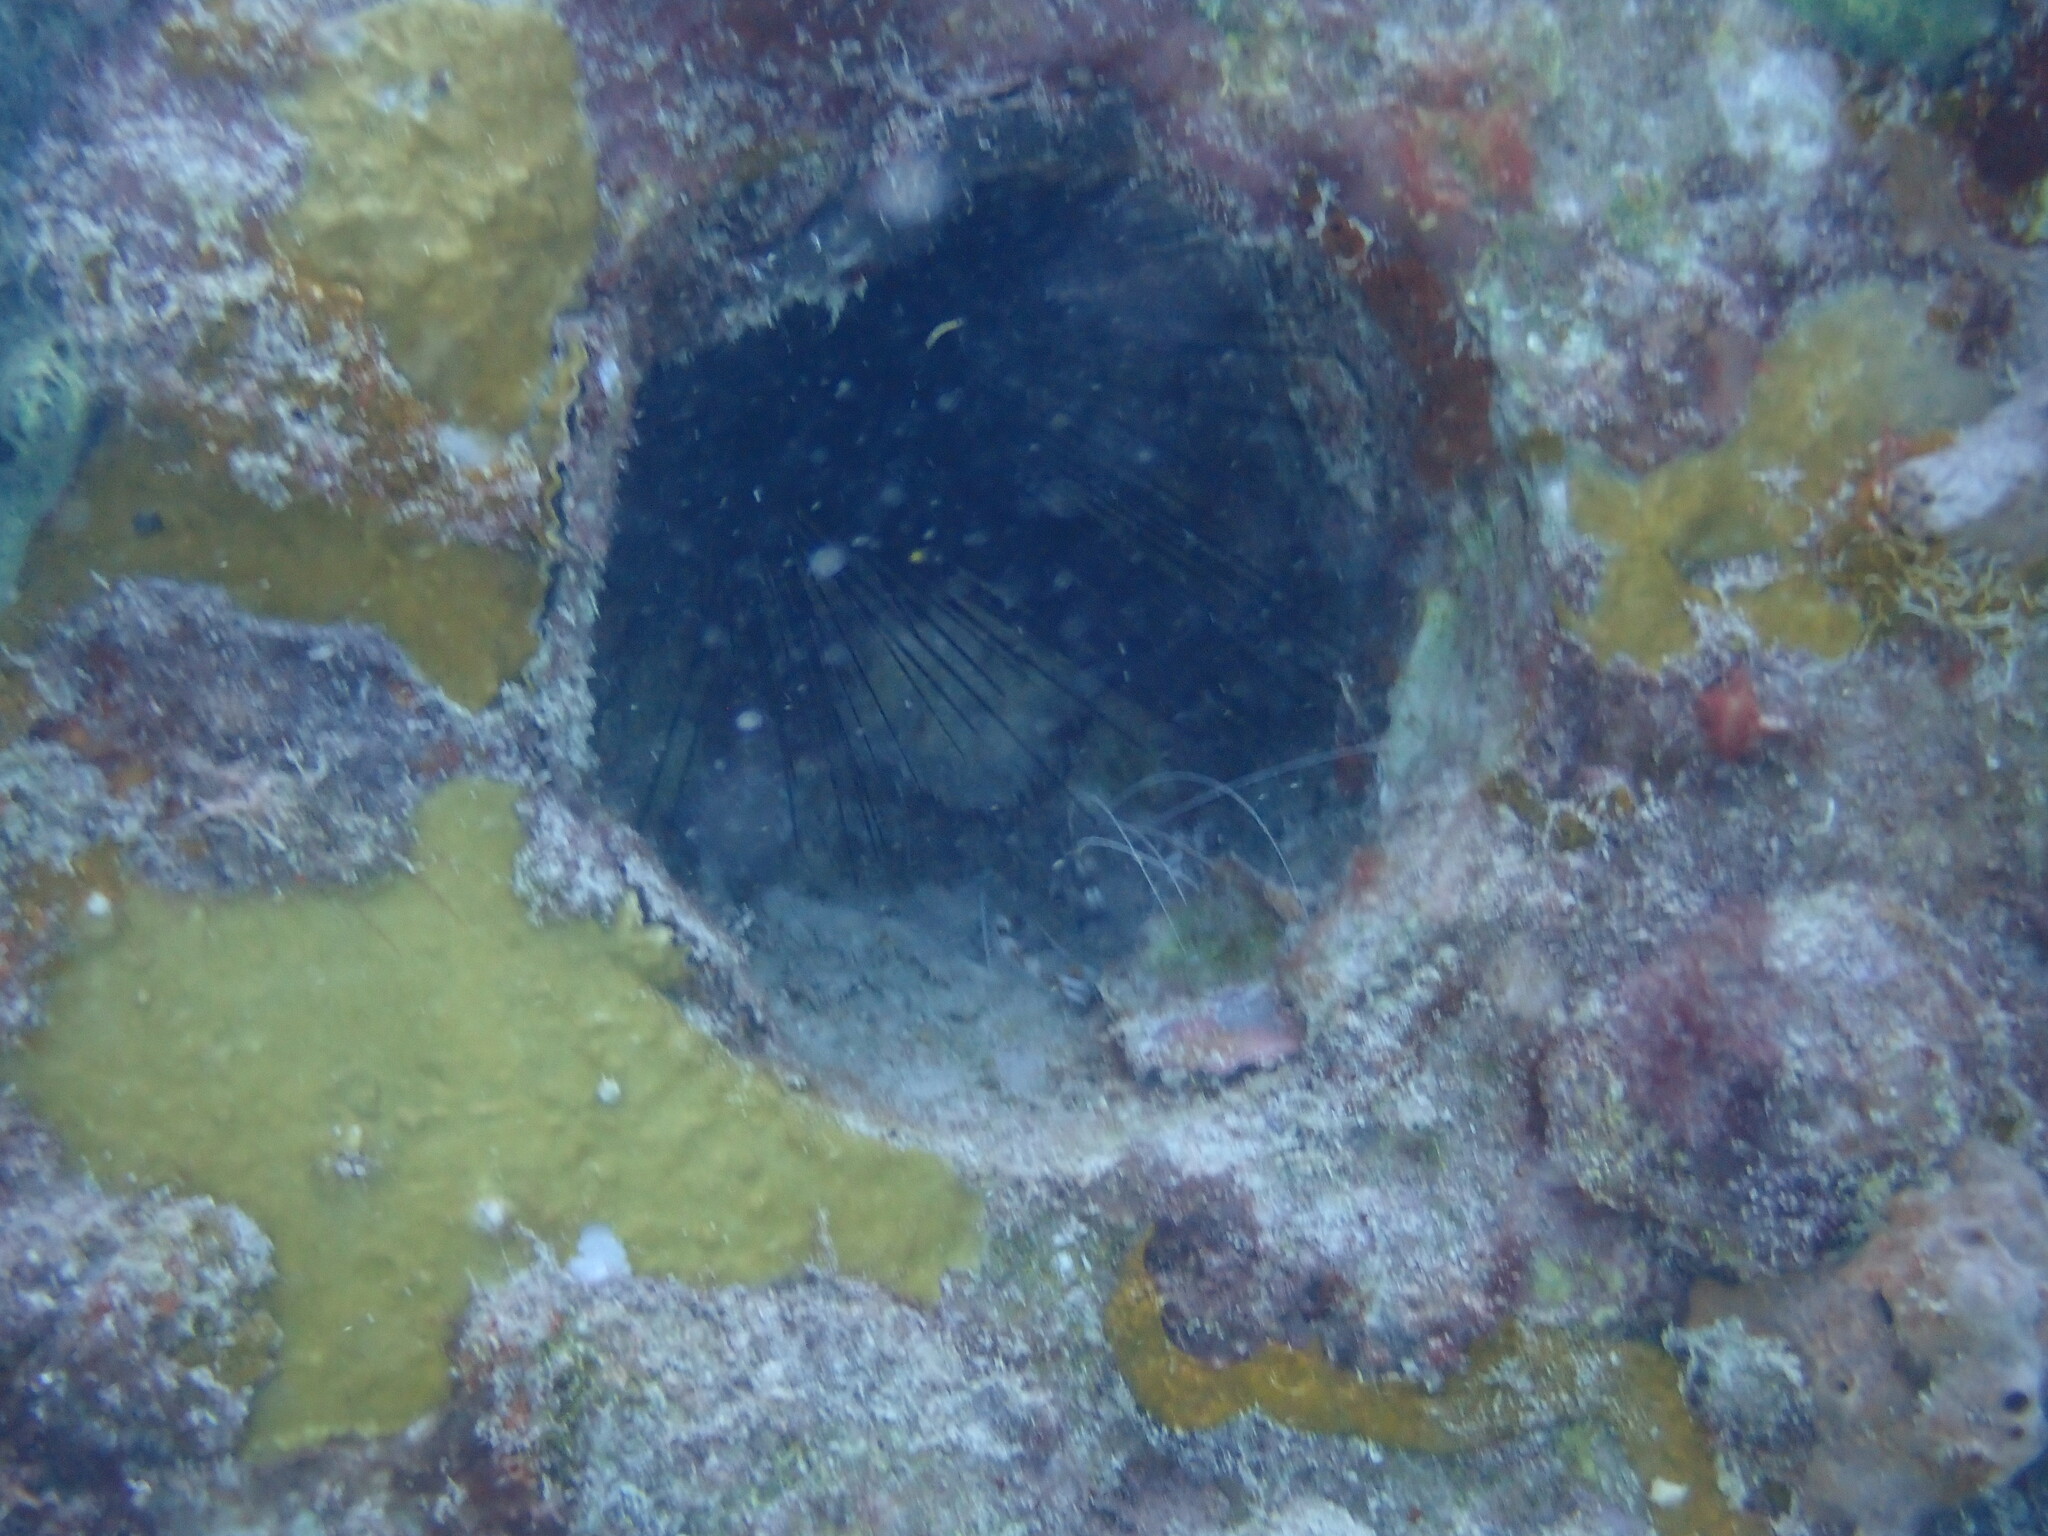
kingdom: Animalia
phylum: Arthropoda
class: Malacostraca
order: Decapoda
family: Stenopodidae
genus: Stenopus
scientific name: Stenopus hispidus
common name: Banded coral shrimp
